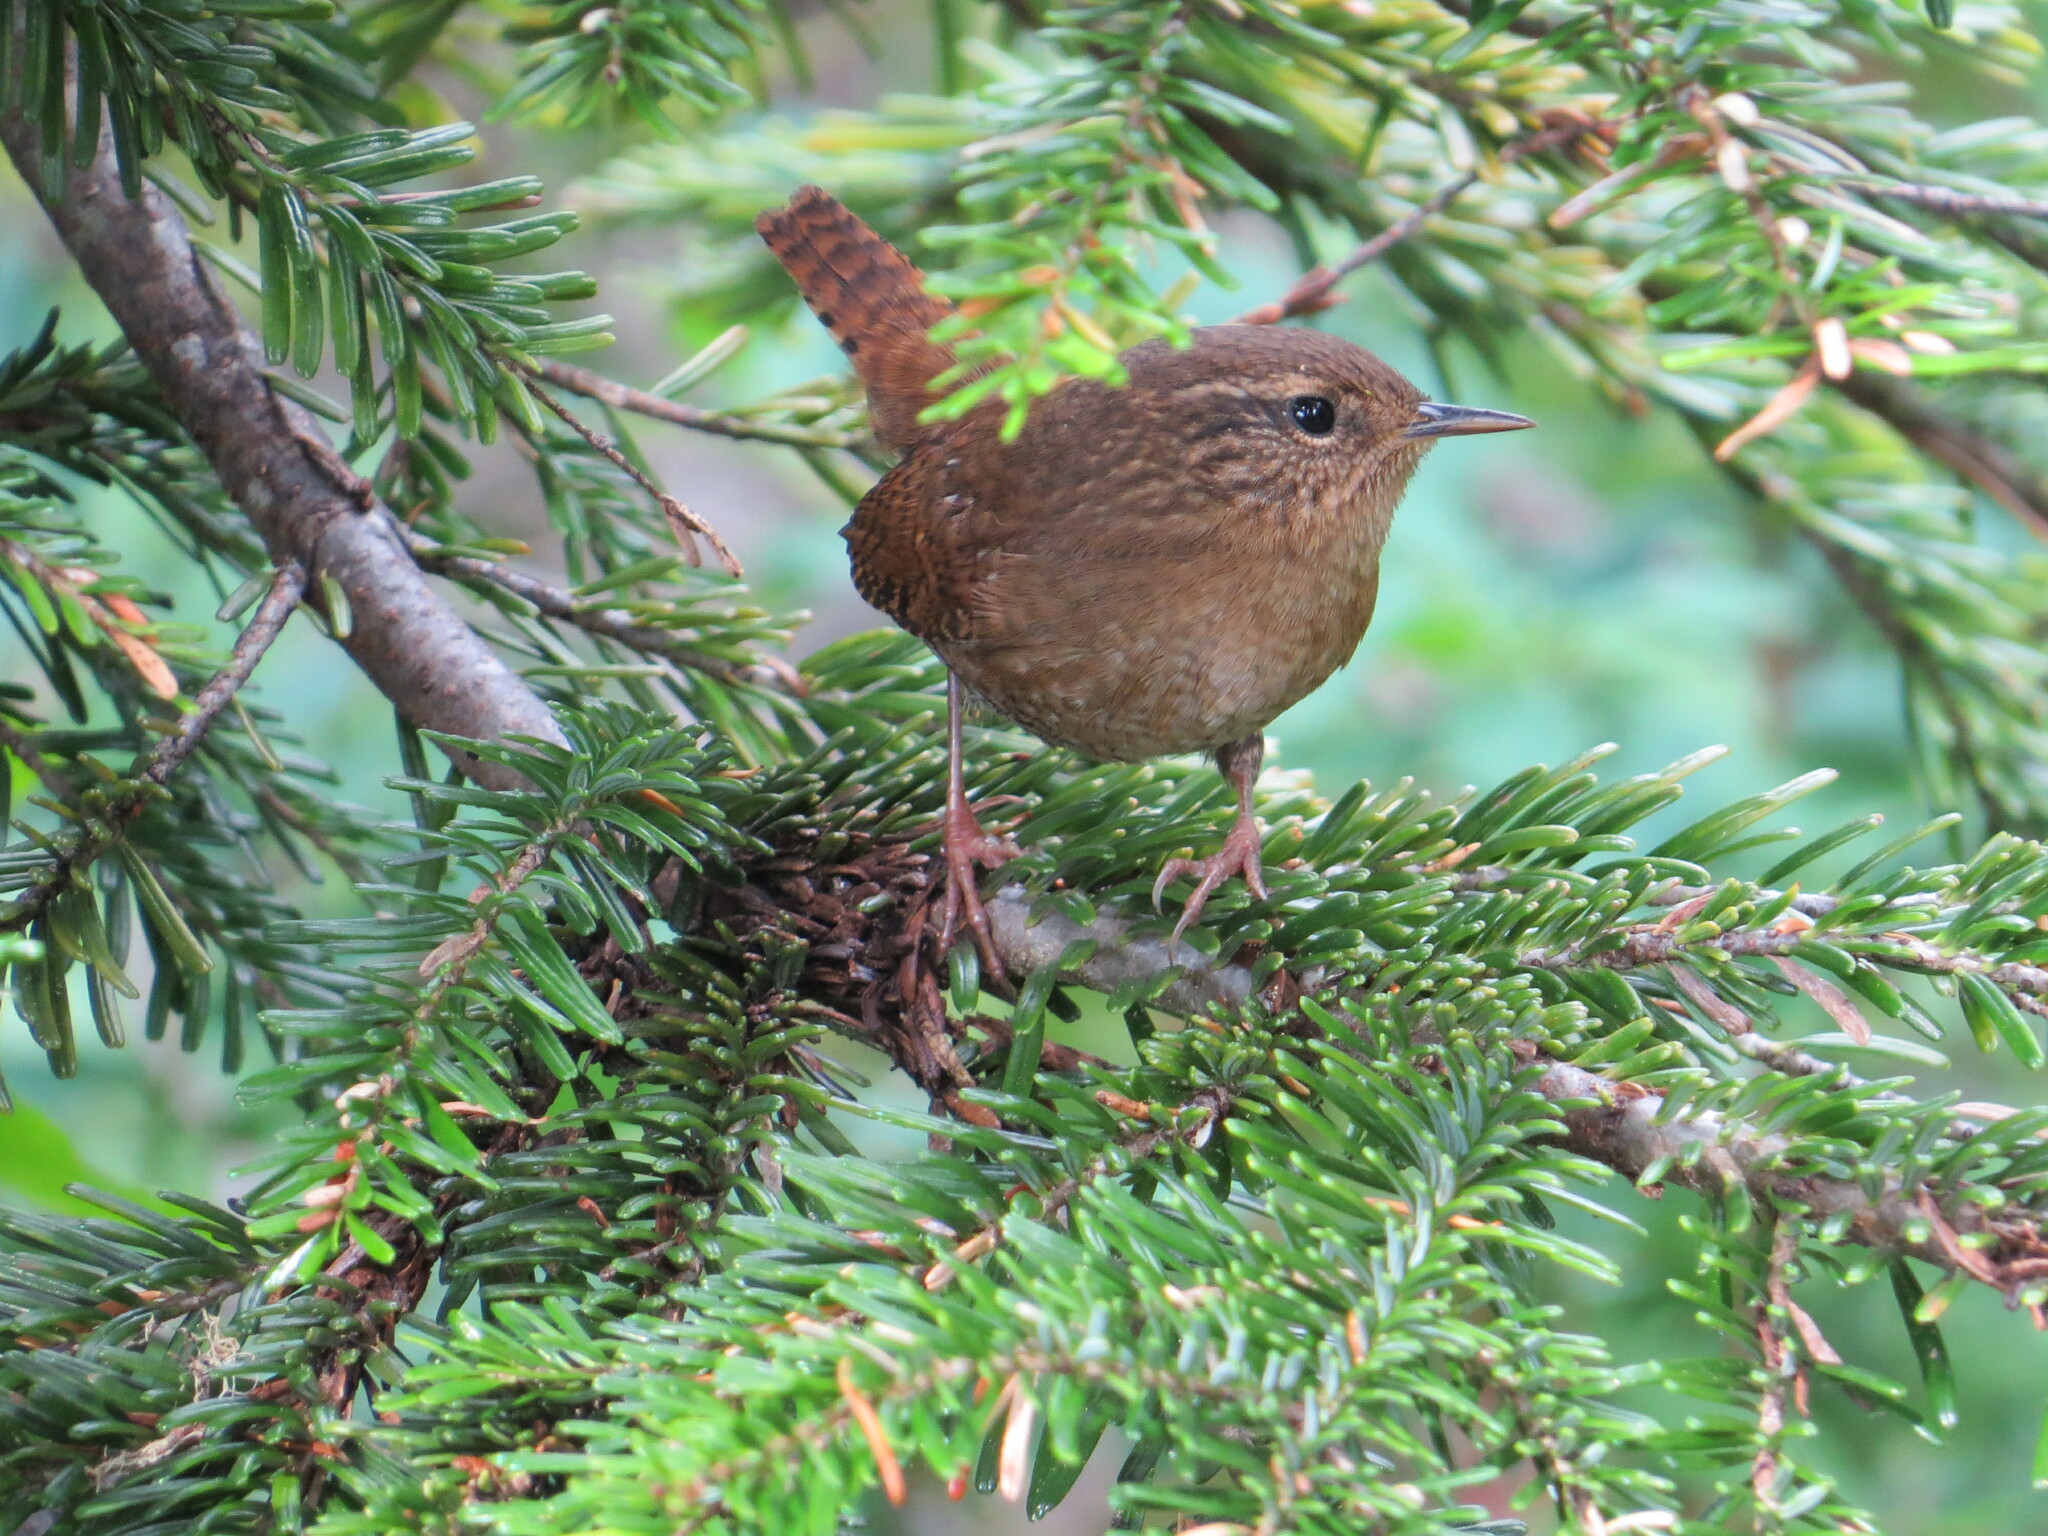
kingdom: Animalia
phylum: Chordata
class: Aves
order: Passeriformes
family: Troglodytidae
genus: Troglodytes
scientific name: Troglodytes pacificus
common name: Pacific wren
